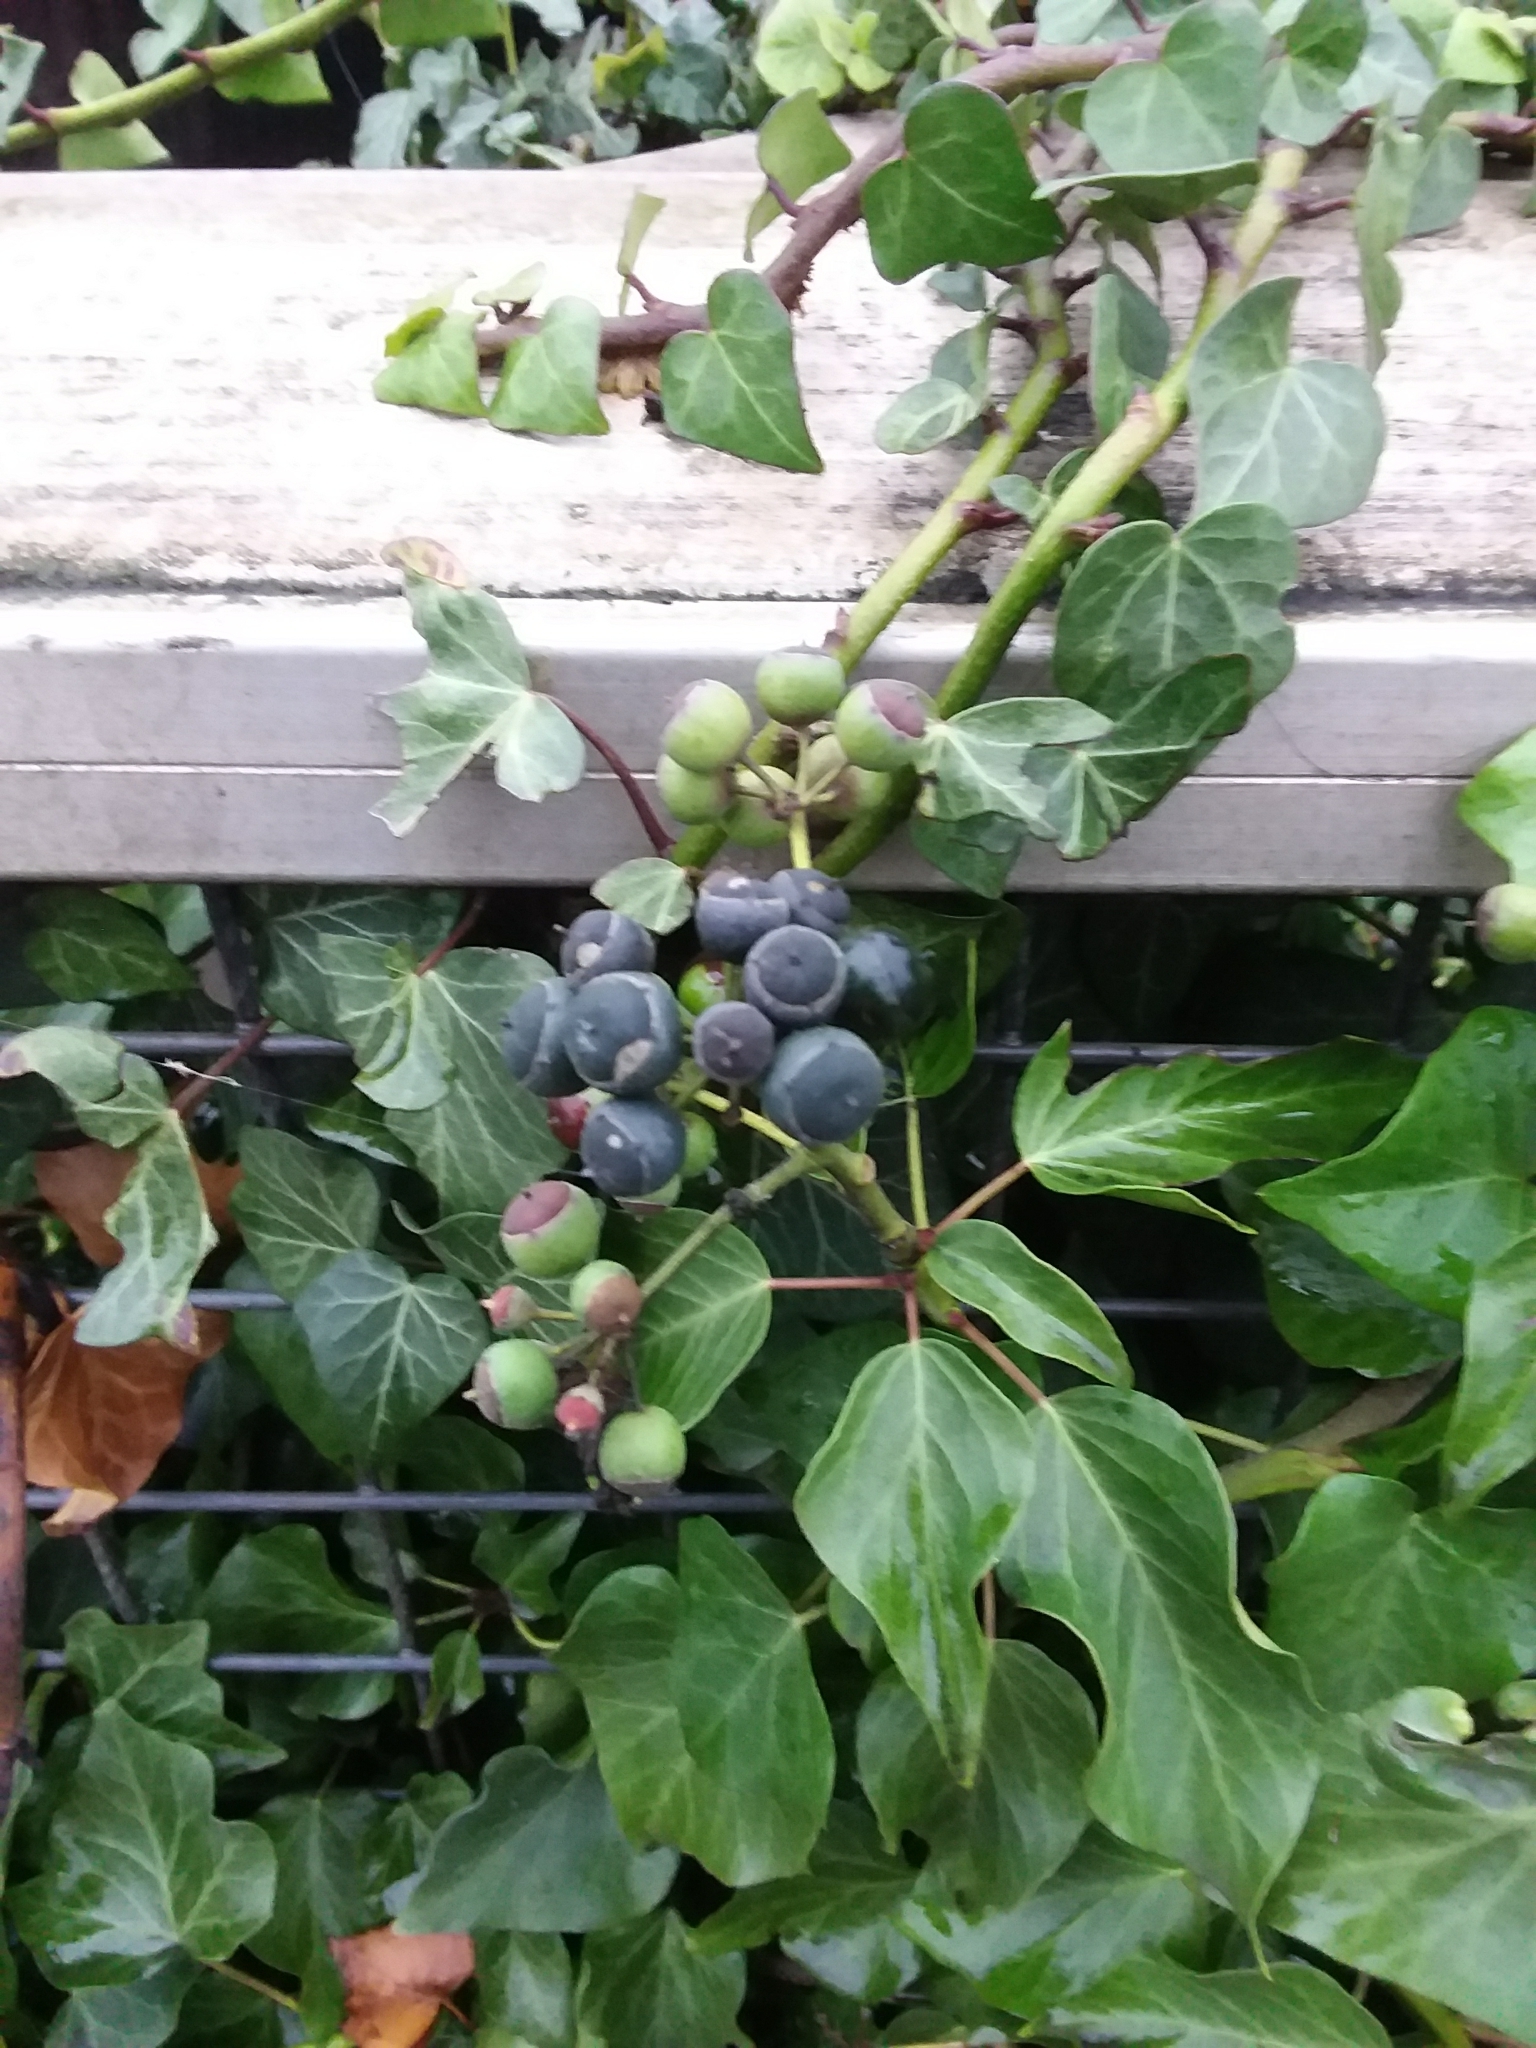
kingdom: Plantae
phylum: Tracheophyta
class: Magnoliopsida
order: Apiales
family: Araliaceae
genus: Hedera
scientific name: Hedera helix
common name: Ivy
